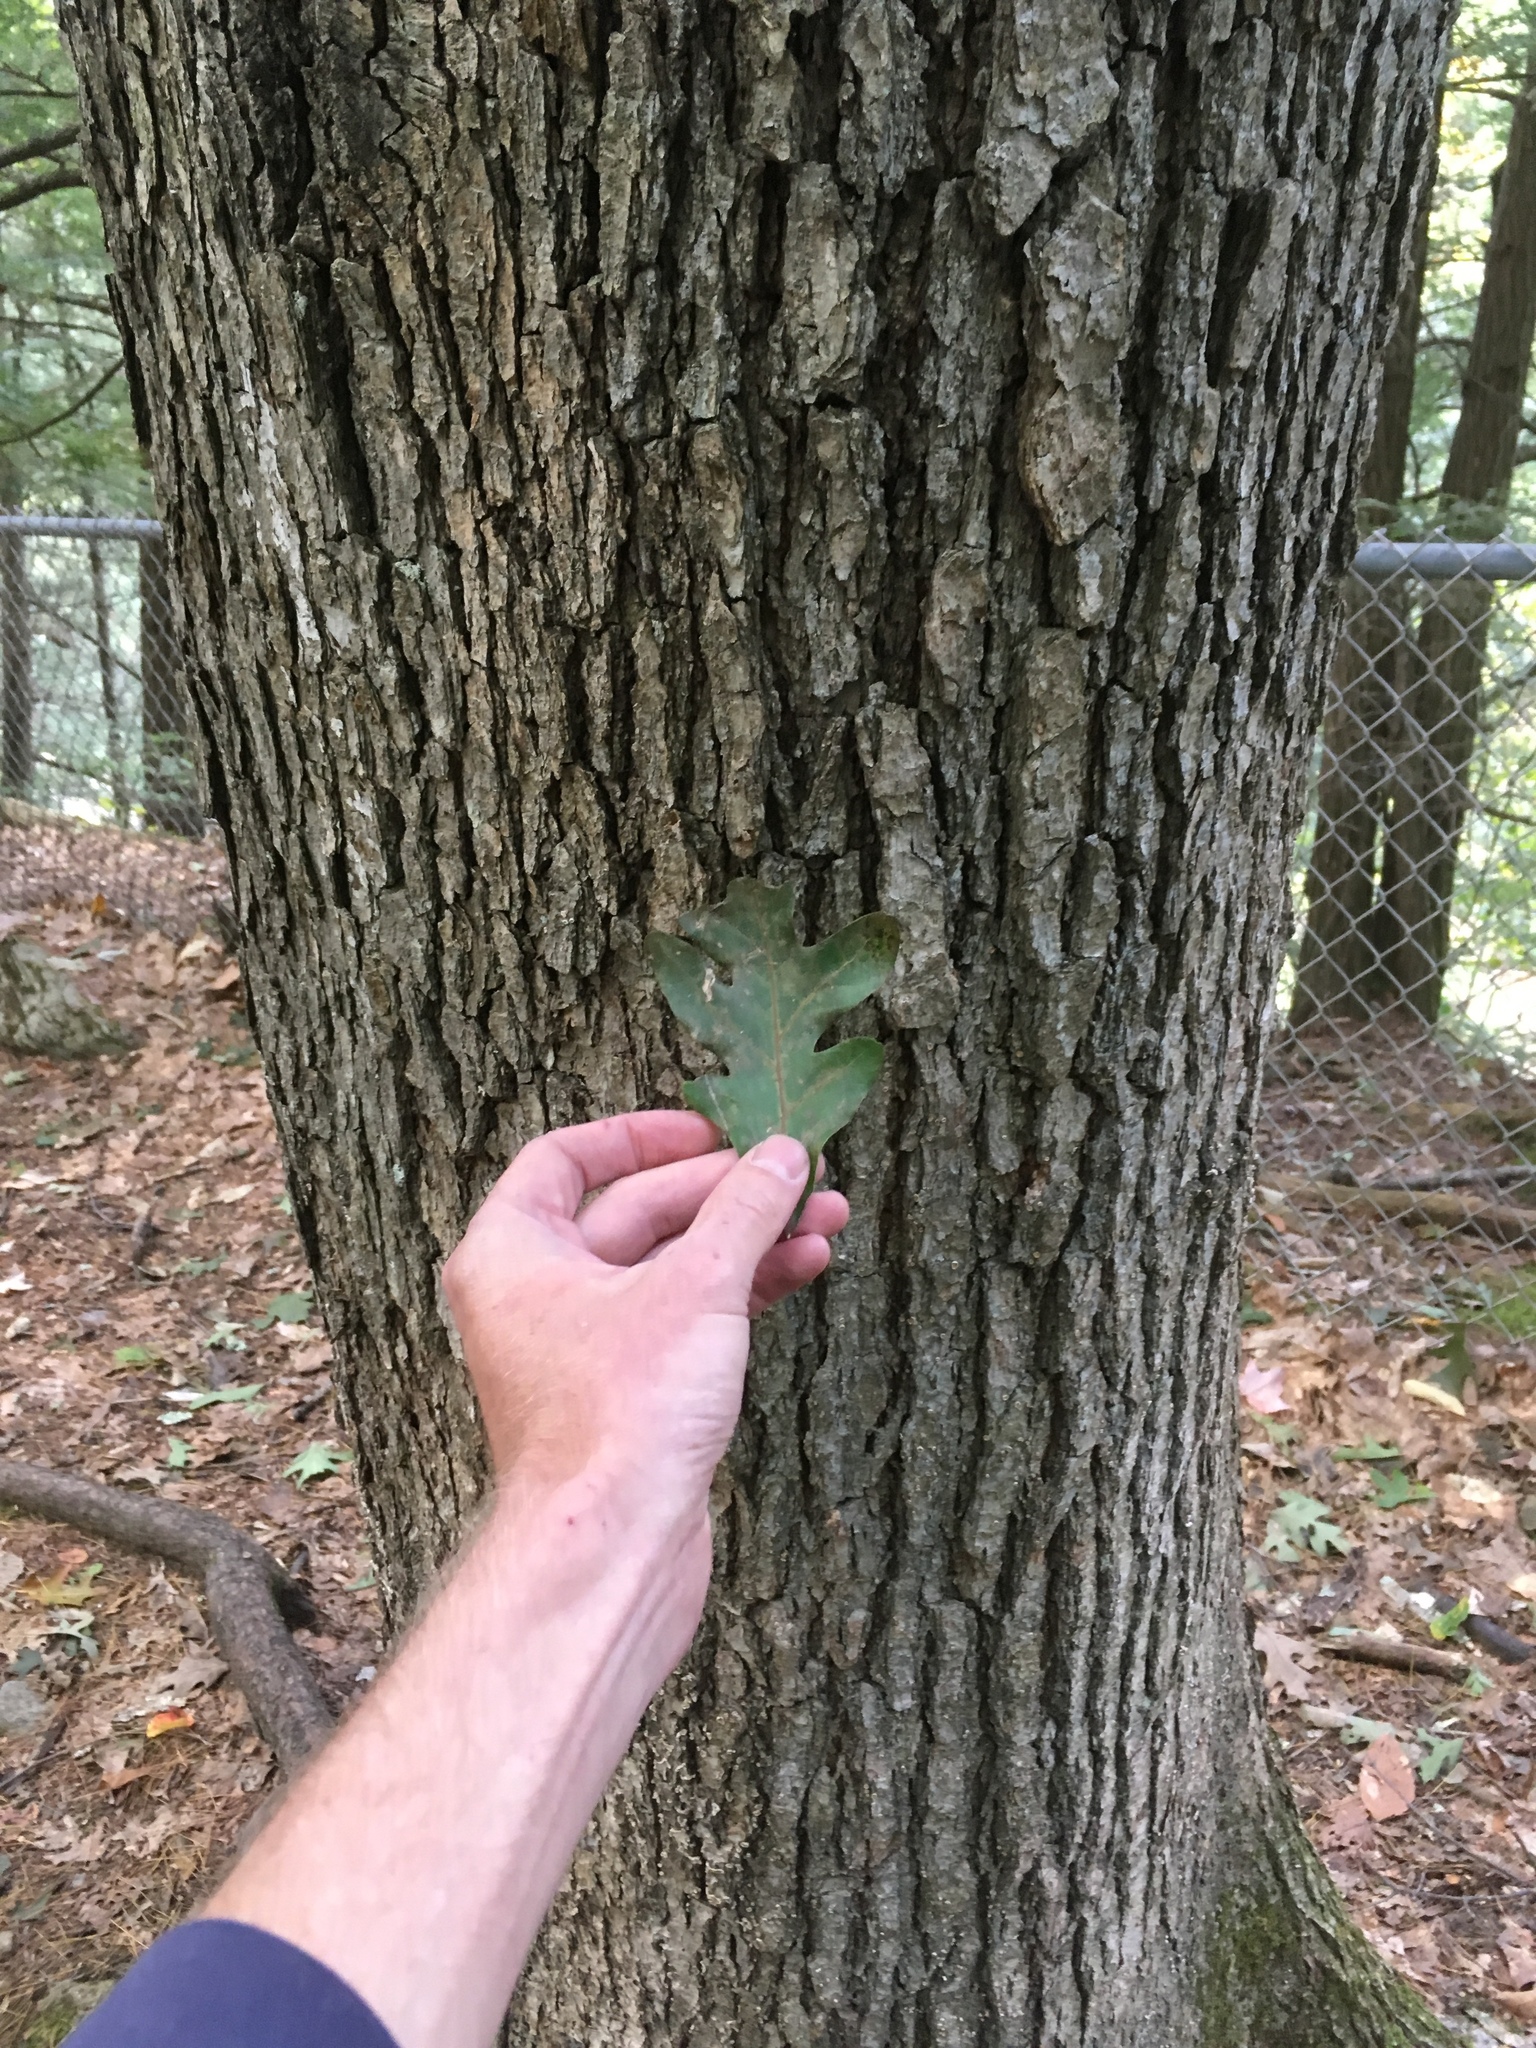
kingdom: Plantae
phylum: Tracheophyta
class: Magnoliopsida
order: Fagales
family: Fagaceae
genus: Quercus
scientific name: Quercus alba
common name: White oak
